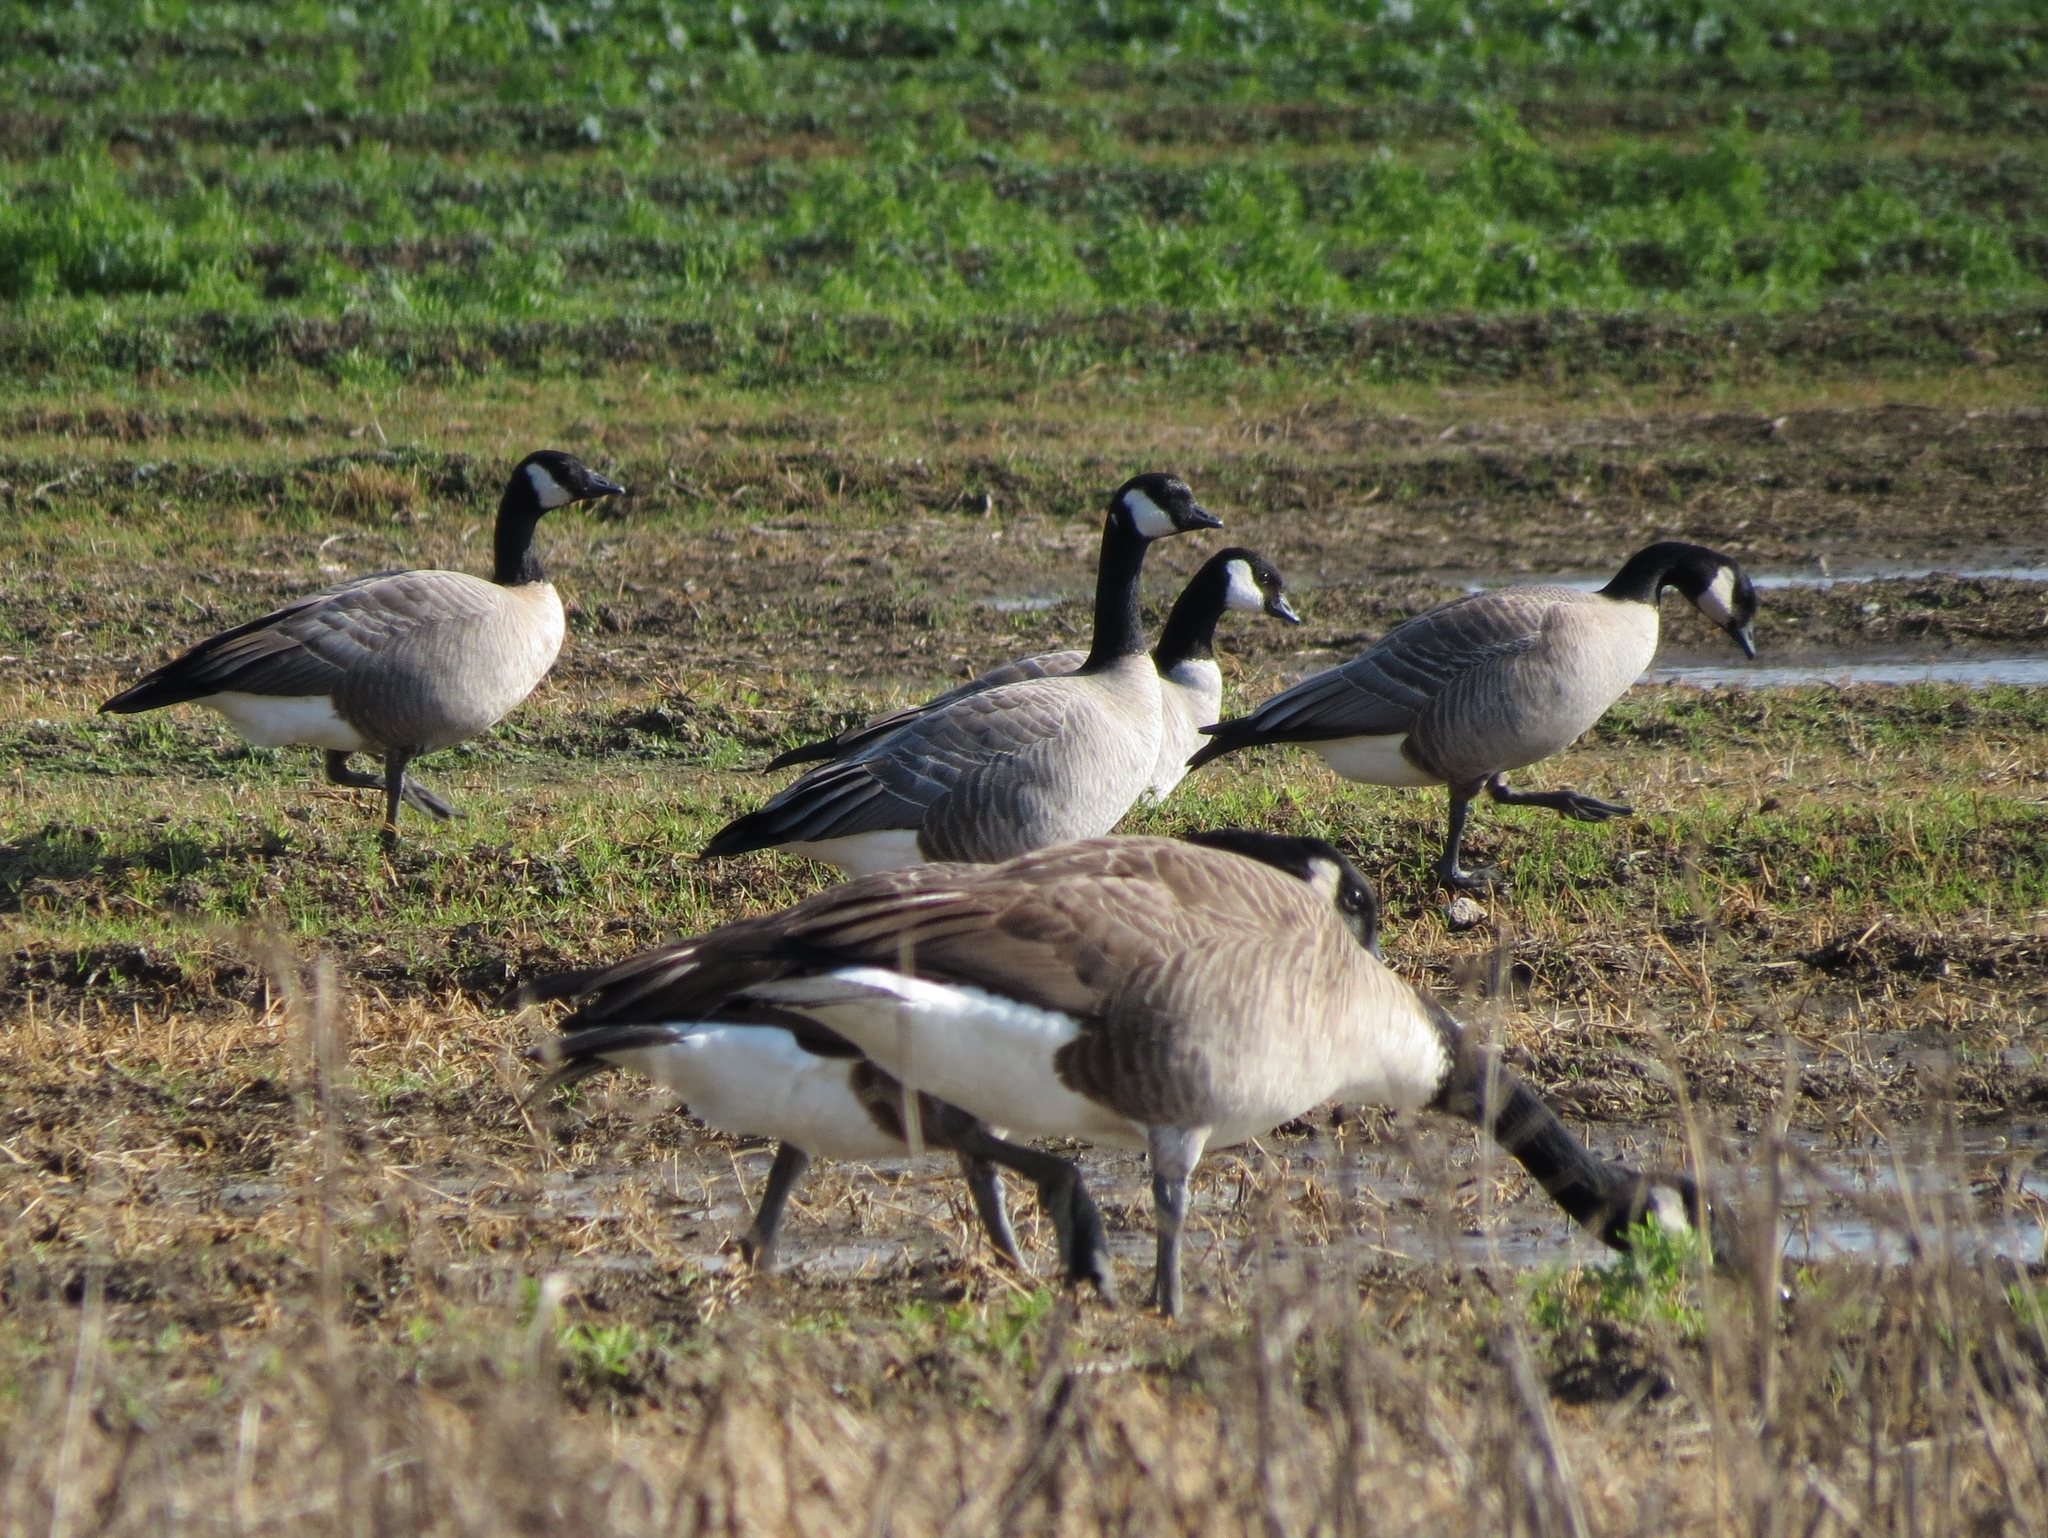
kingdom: Animalia
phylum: Chordata
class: Aves
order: Anseriformes
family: Anatidae
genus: Branta
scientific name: Branta canadensis
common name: Canada goose
